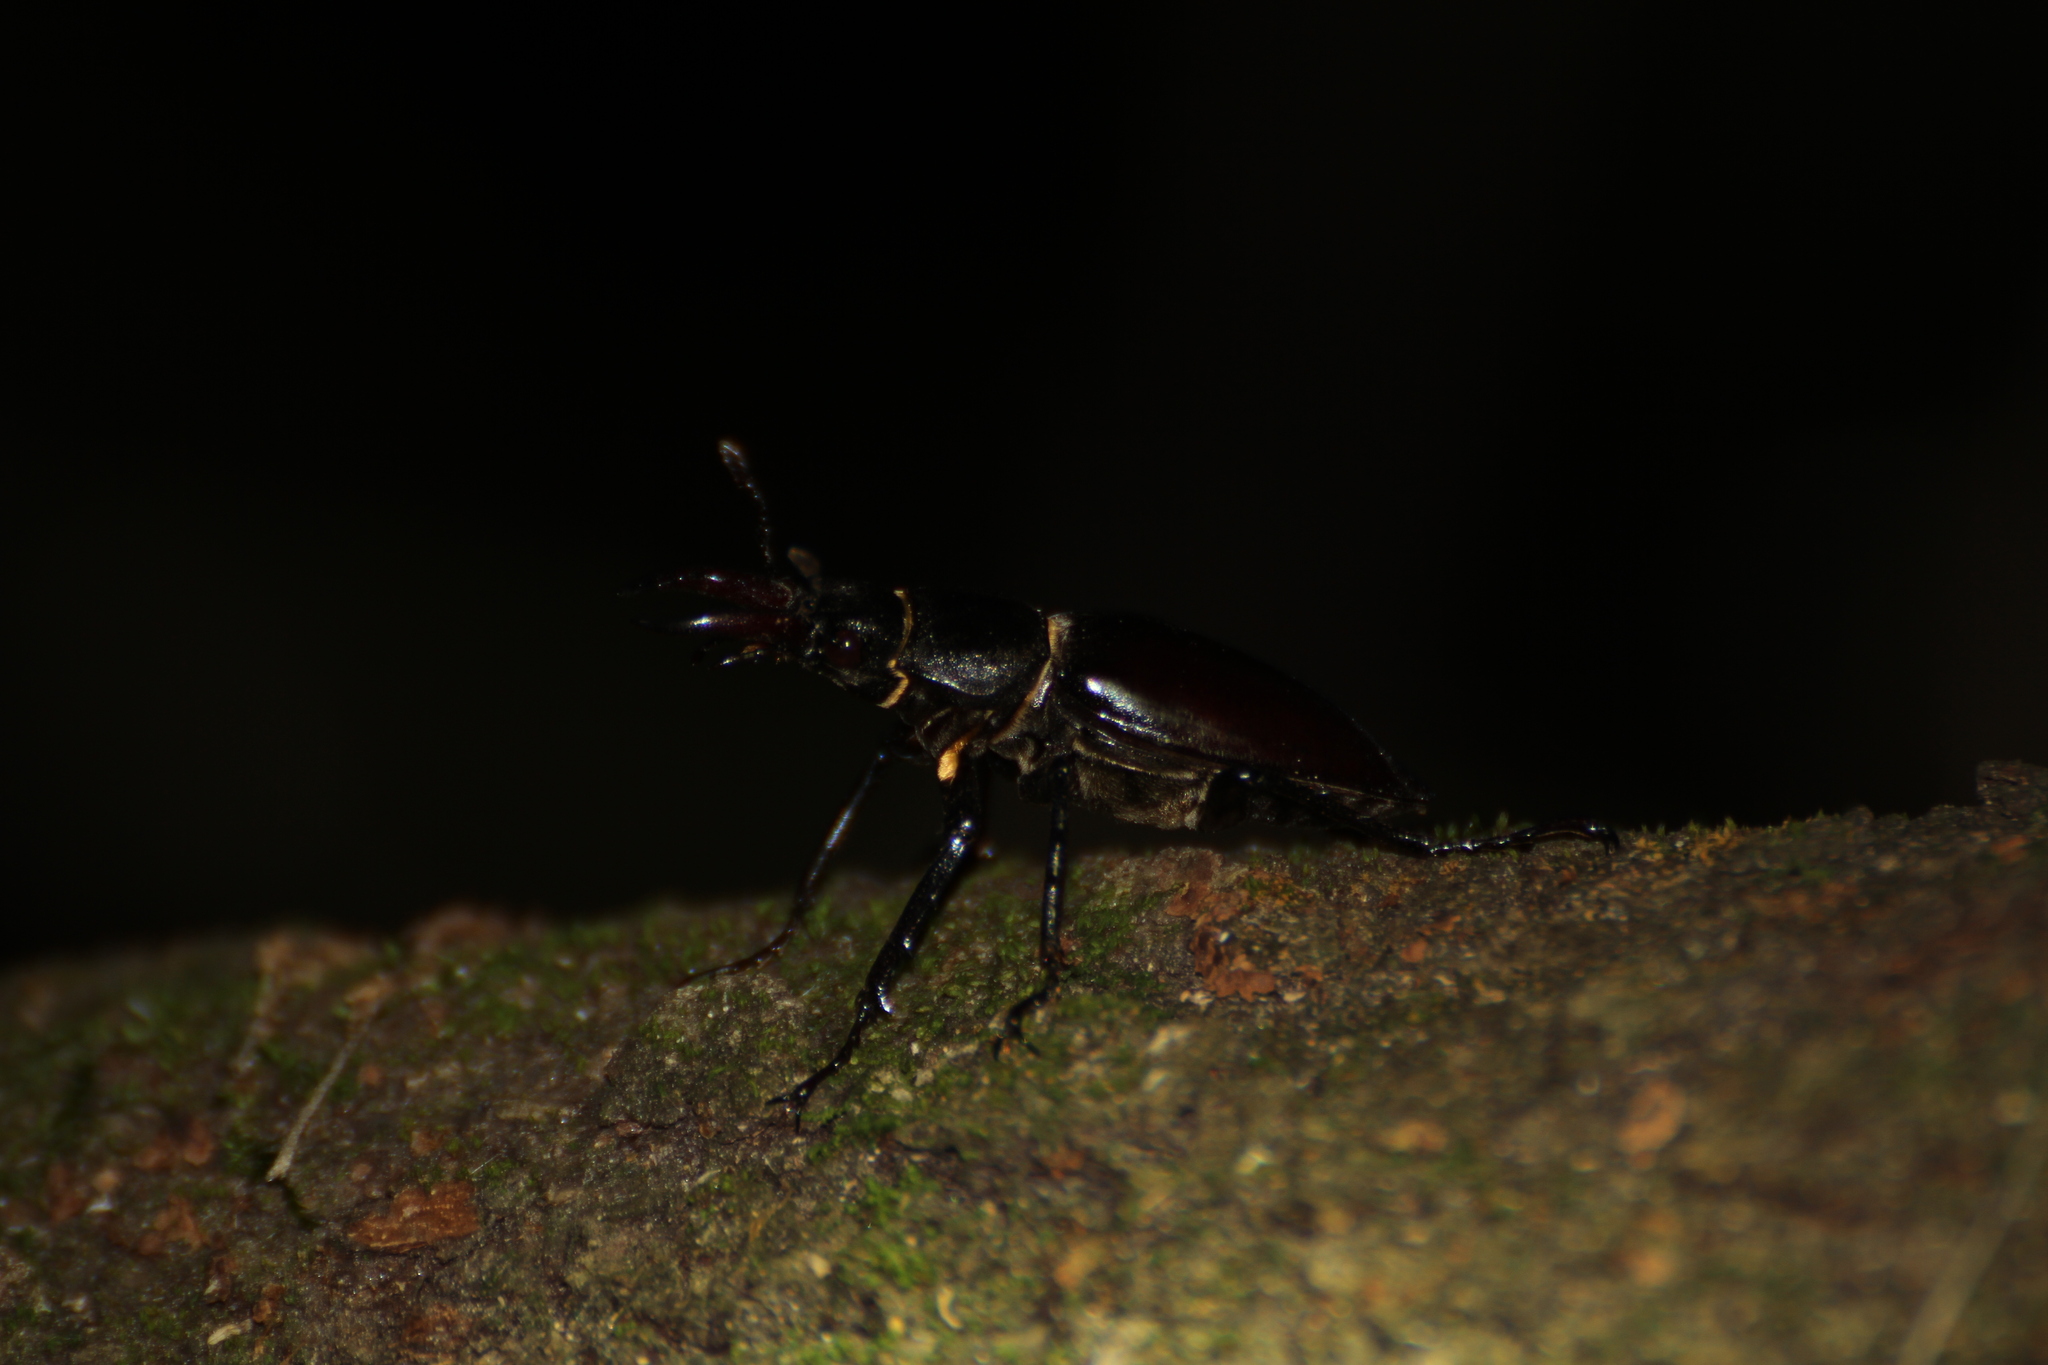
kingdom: Animalia
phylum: Arthropoda
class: Insecta
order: Coleoptera
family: Lucanidae
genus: Lucanus
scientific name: Lucanus cervus
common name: Stag beetle
